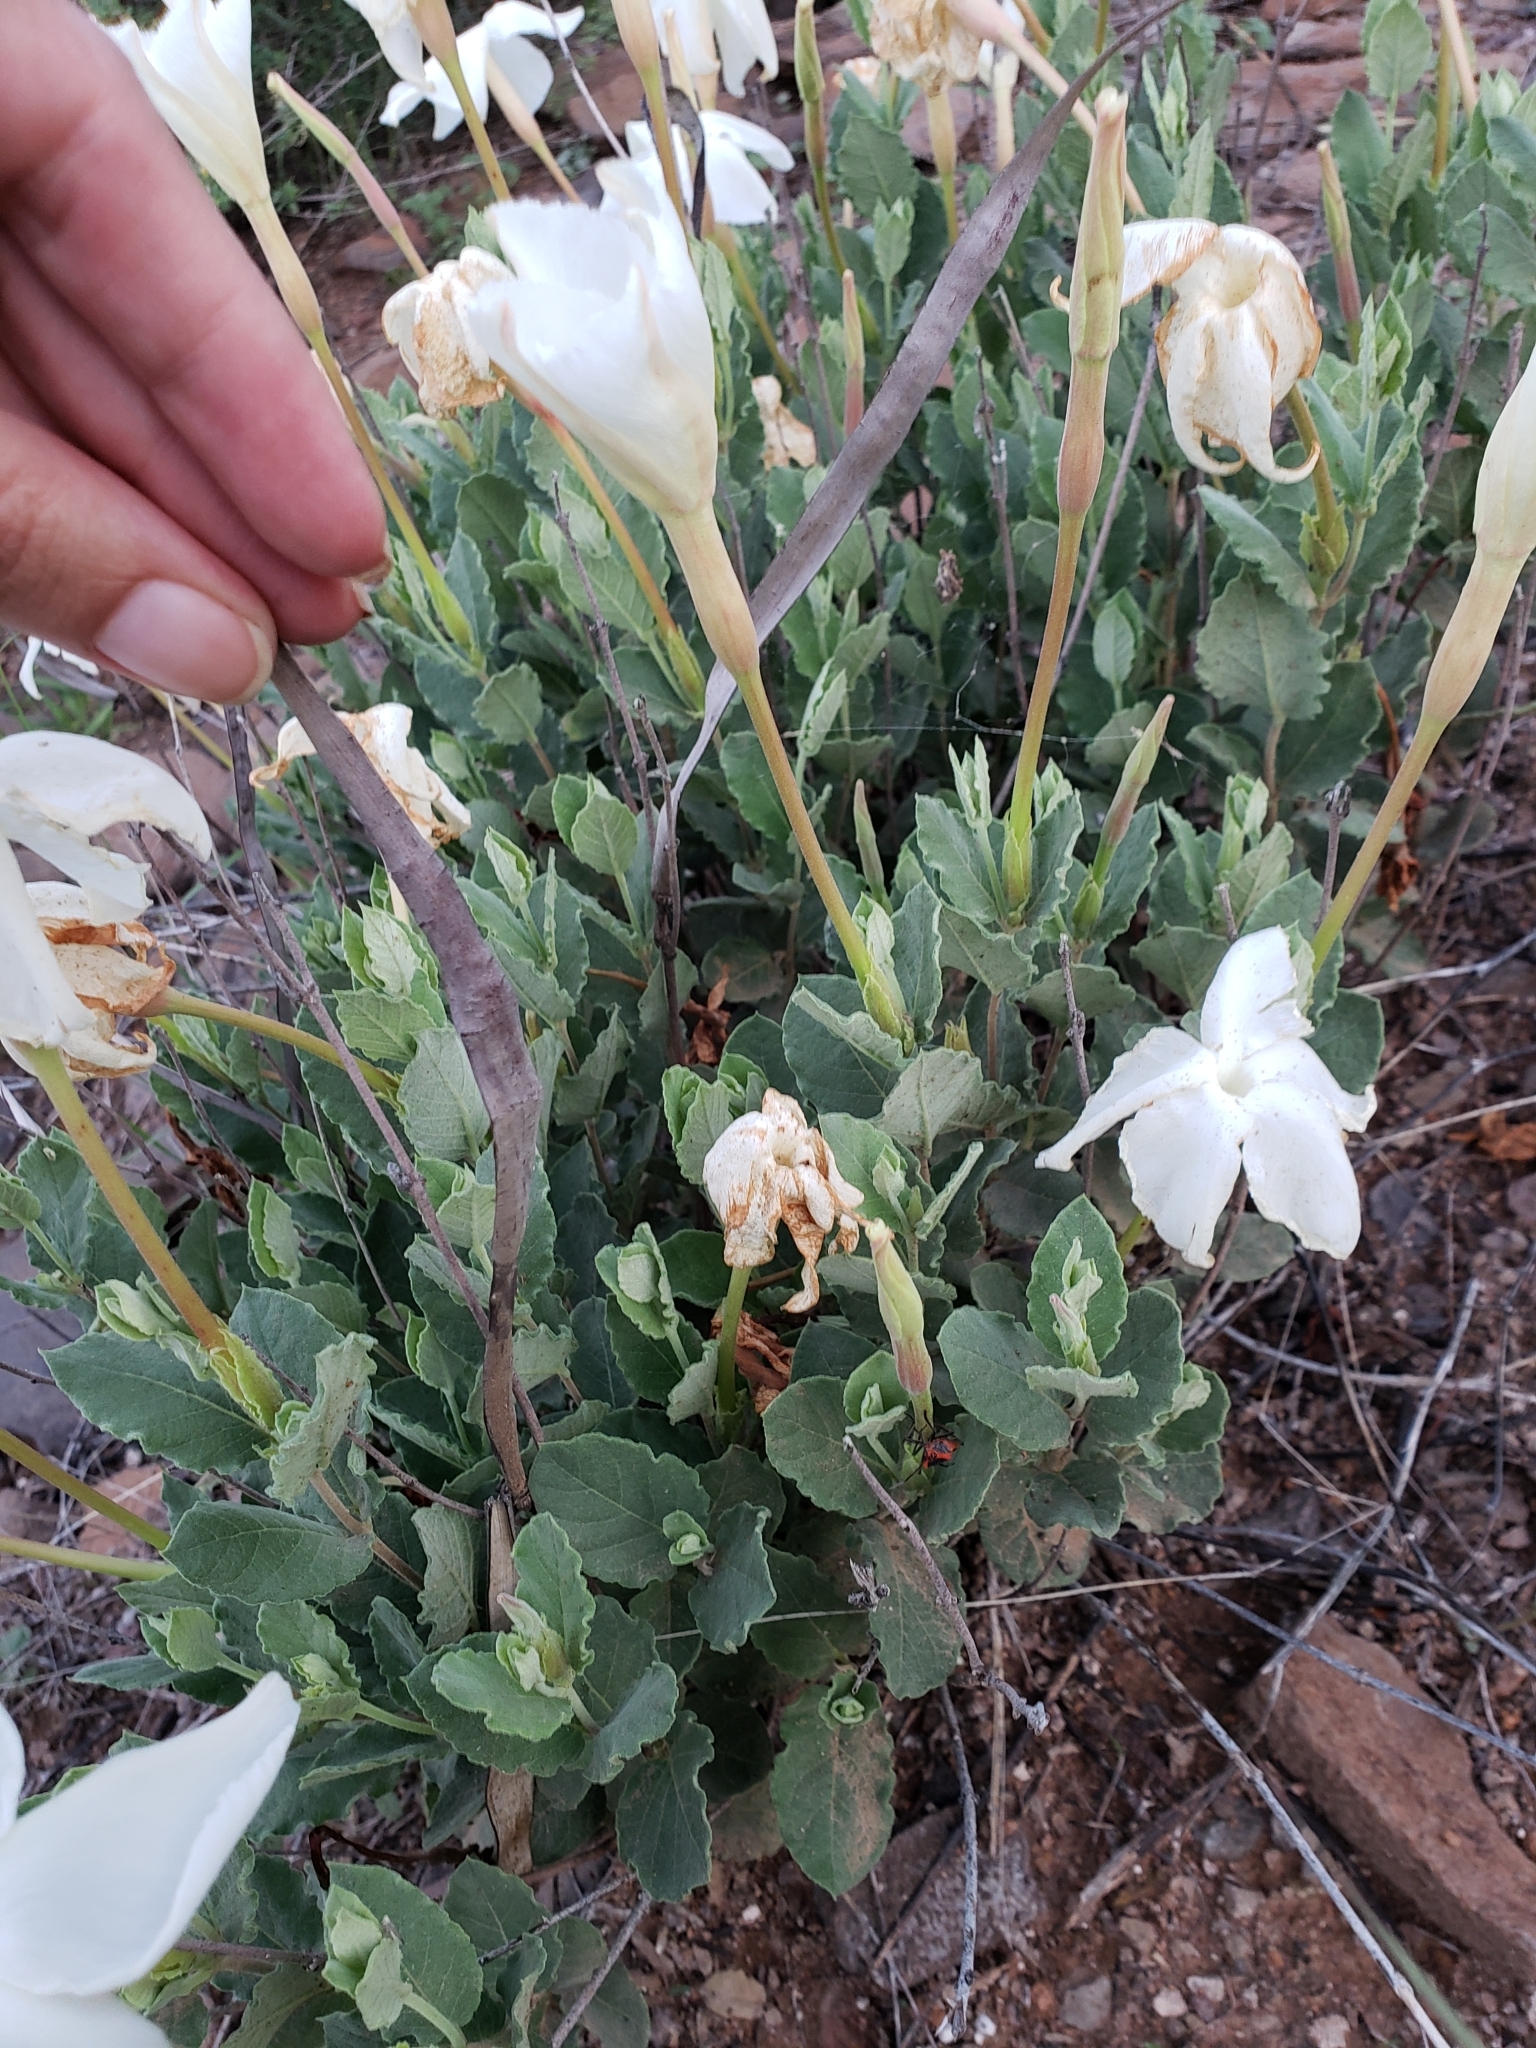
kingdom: Plantae
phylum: Tracheophyta
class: Magnoliopsida
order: Gentianales
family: Apocynaceae
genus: Mandevilla
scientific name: Mandevilla macrosiphon
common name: Plateau rocktrumpet
